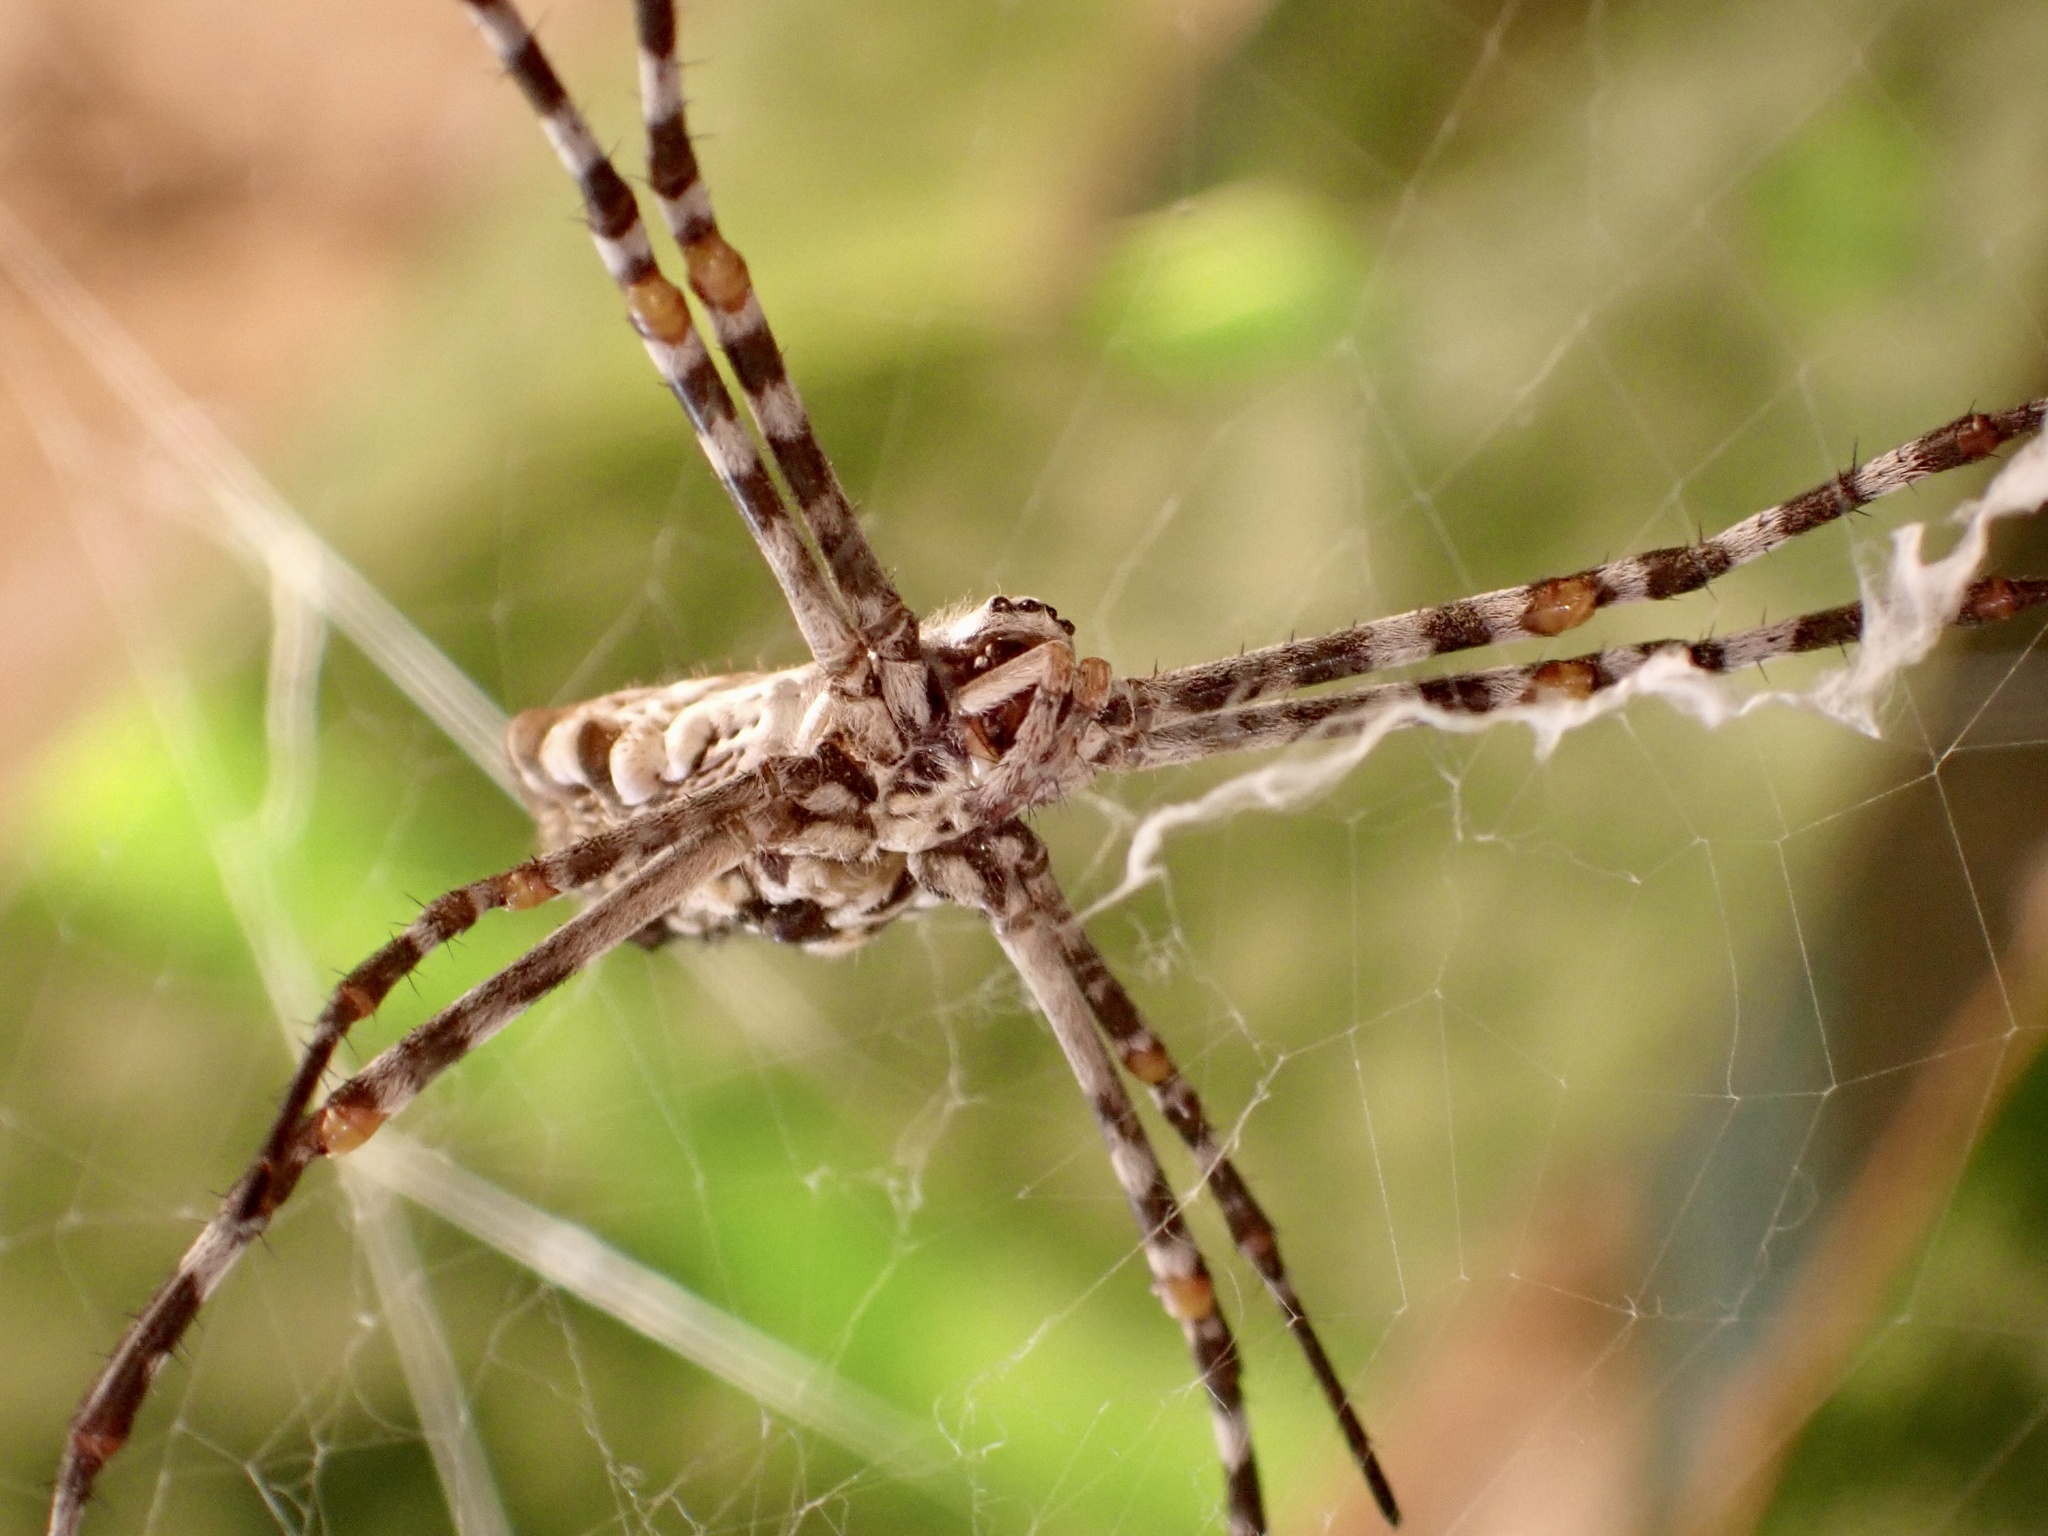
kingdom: Animalia
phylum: Arthropoda
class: Arachnida
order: Araneae
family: Araneidae
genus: Argiope
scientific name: Argiope sector
